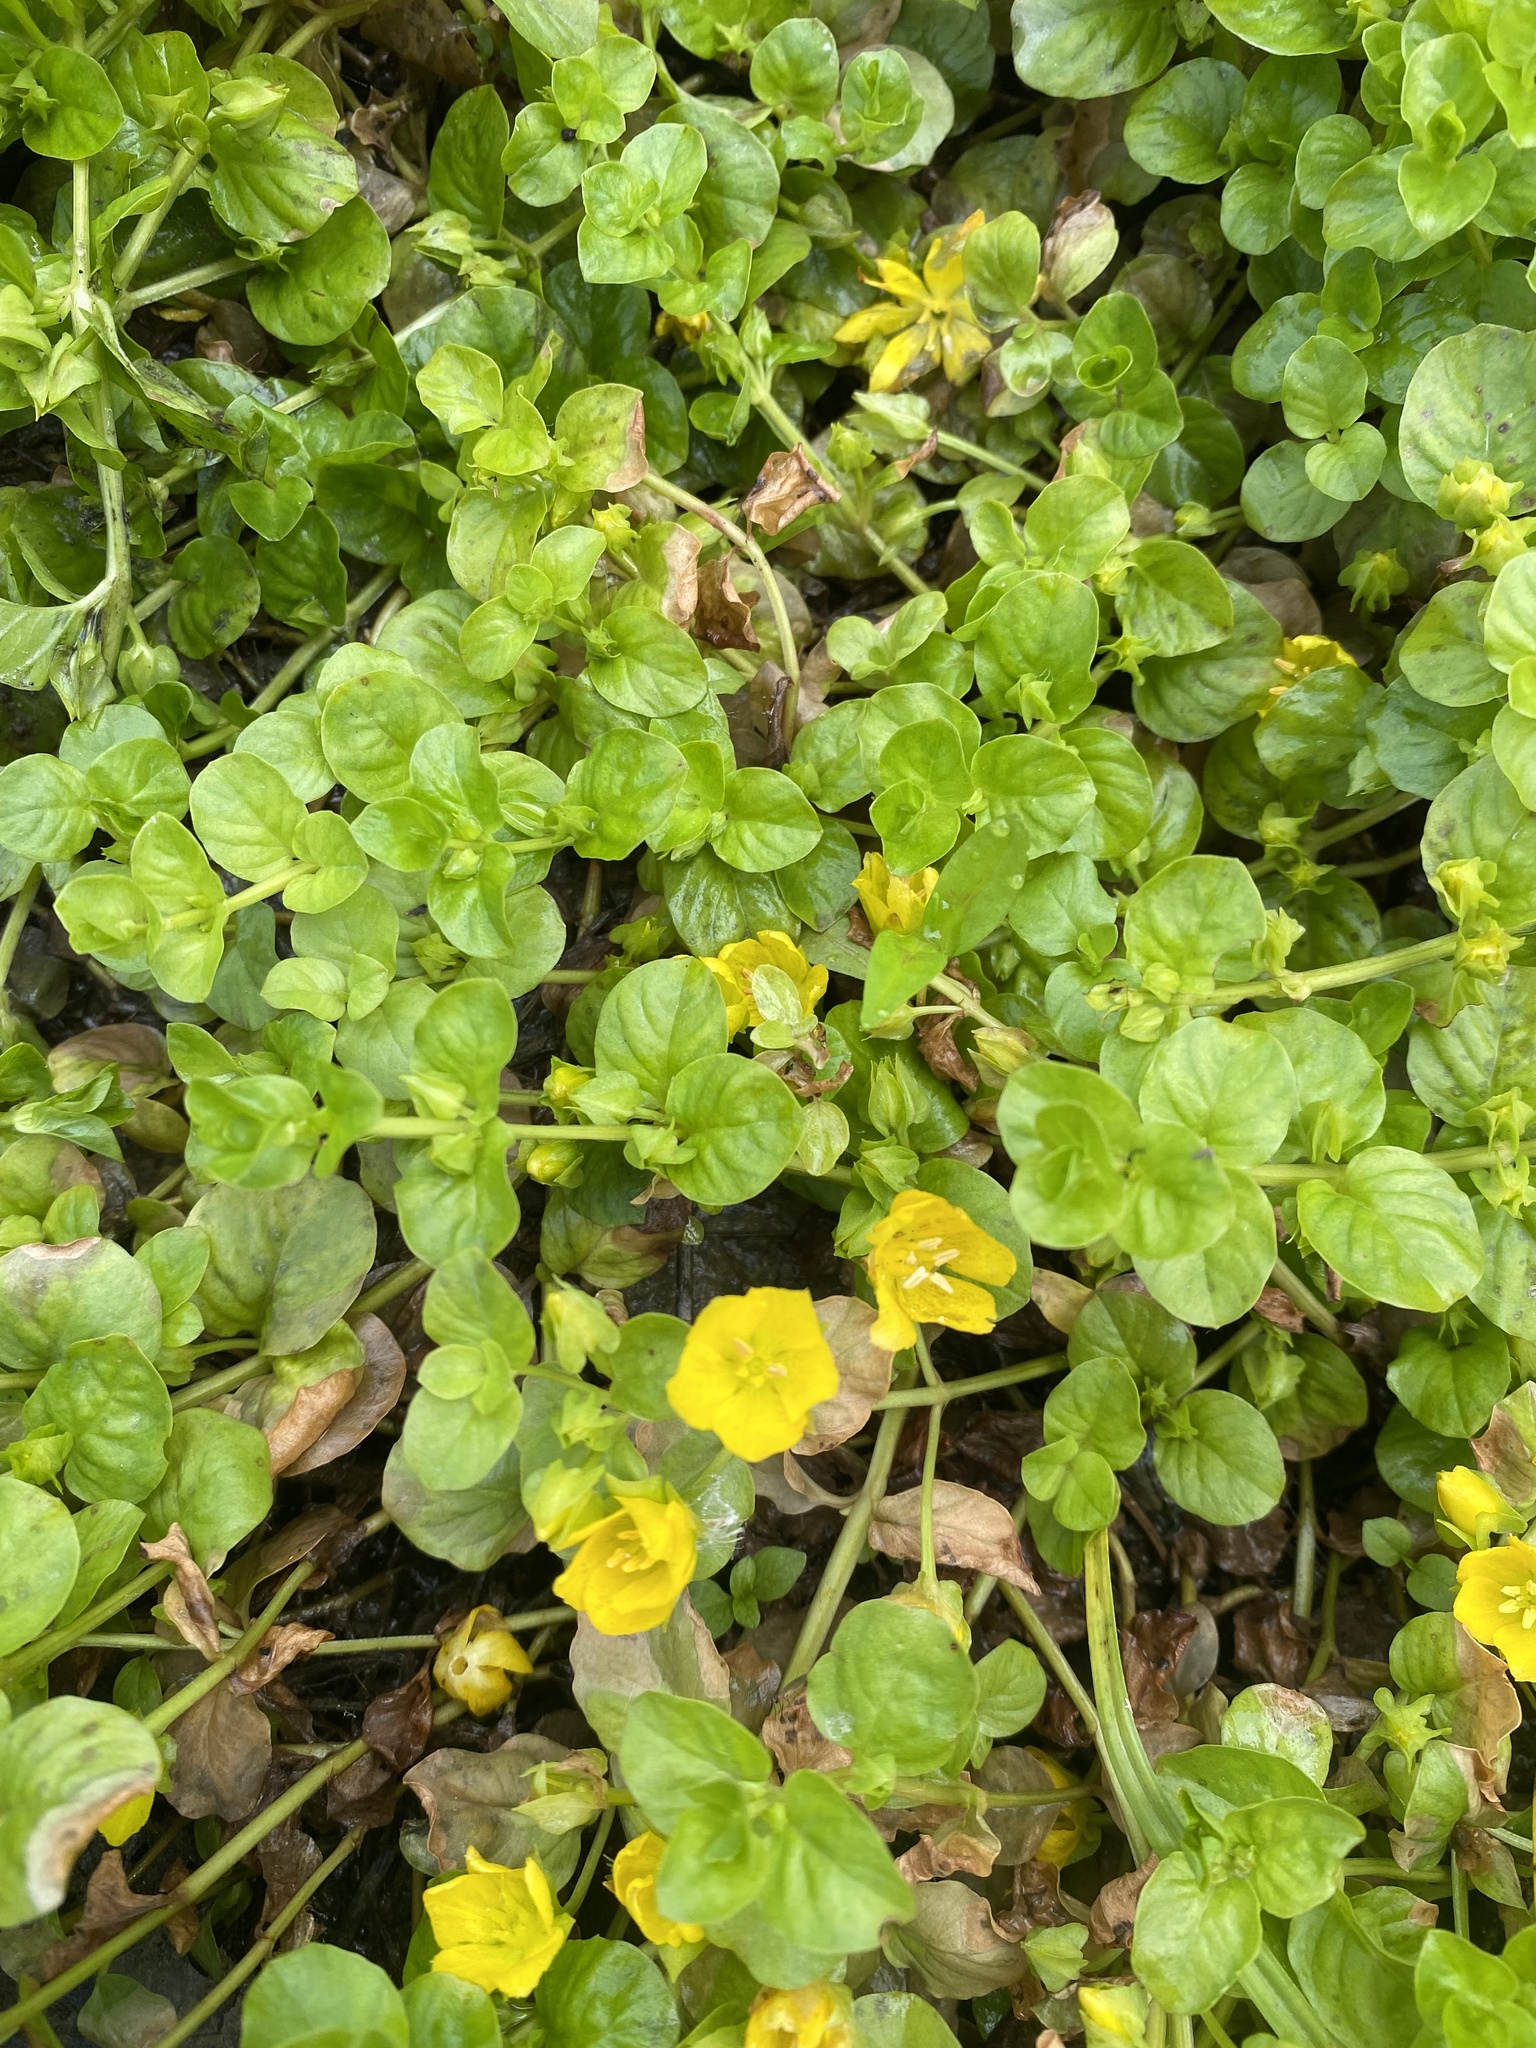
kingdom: Plantae
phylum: Tracheophyta
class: Magnoliopsida
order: Ericales
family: Primulaceae
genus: Lysimachia
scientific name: Lysimachia nummularia
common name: Moneywort
